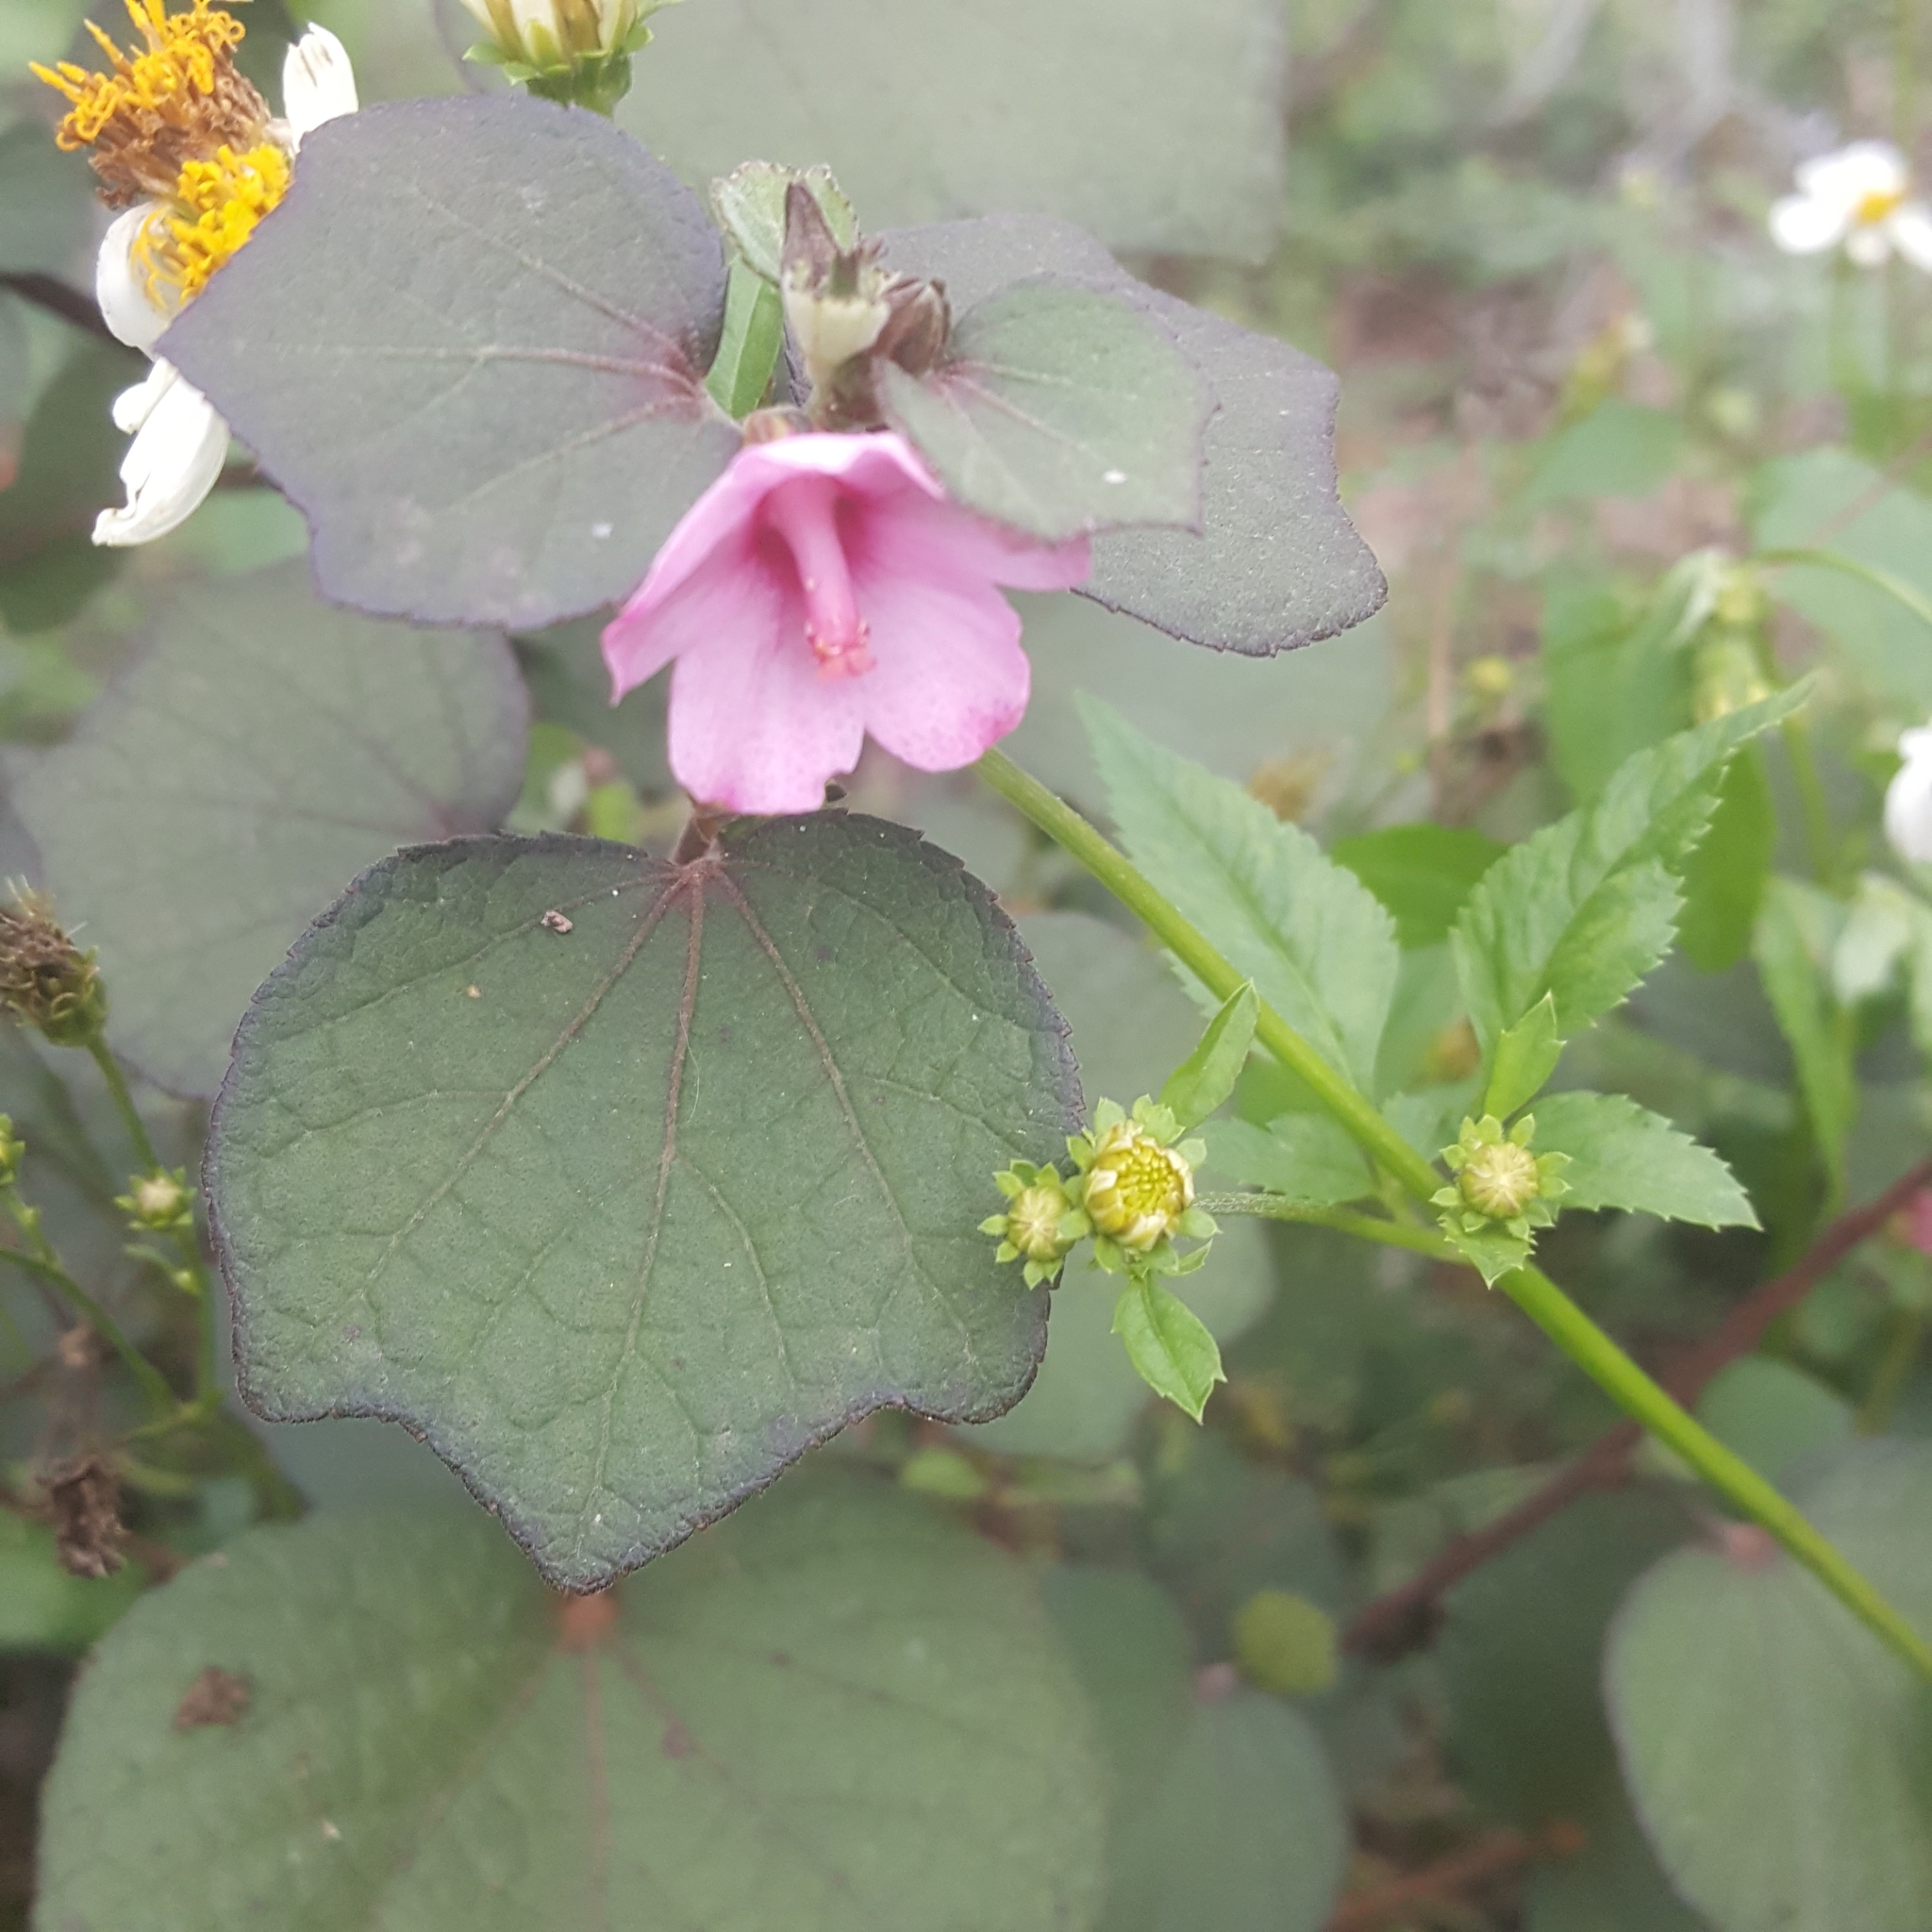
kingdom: Plantae
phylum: Tracheophyta
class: Magnoliopsida
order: Malvales
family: Malvaceae
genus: Urena
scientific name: Urena lobata
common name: Caesarweed
